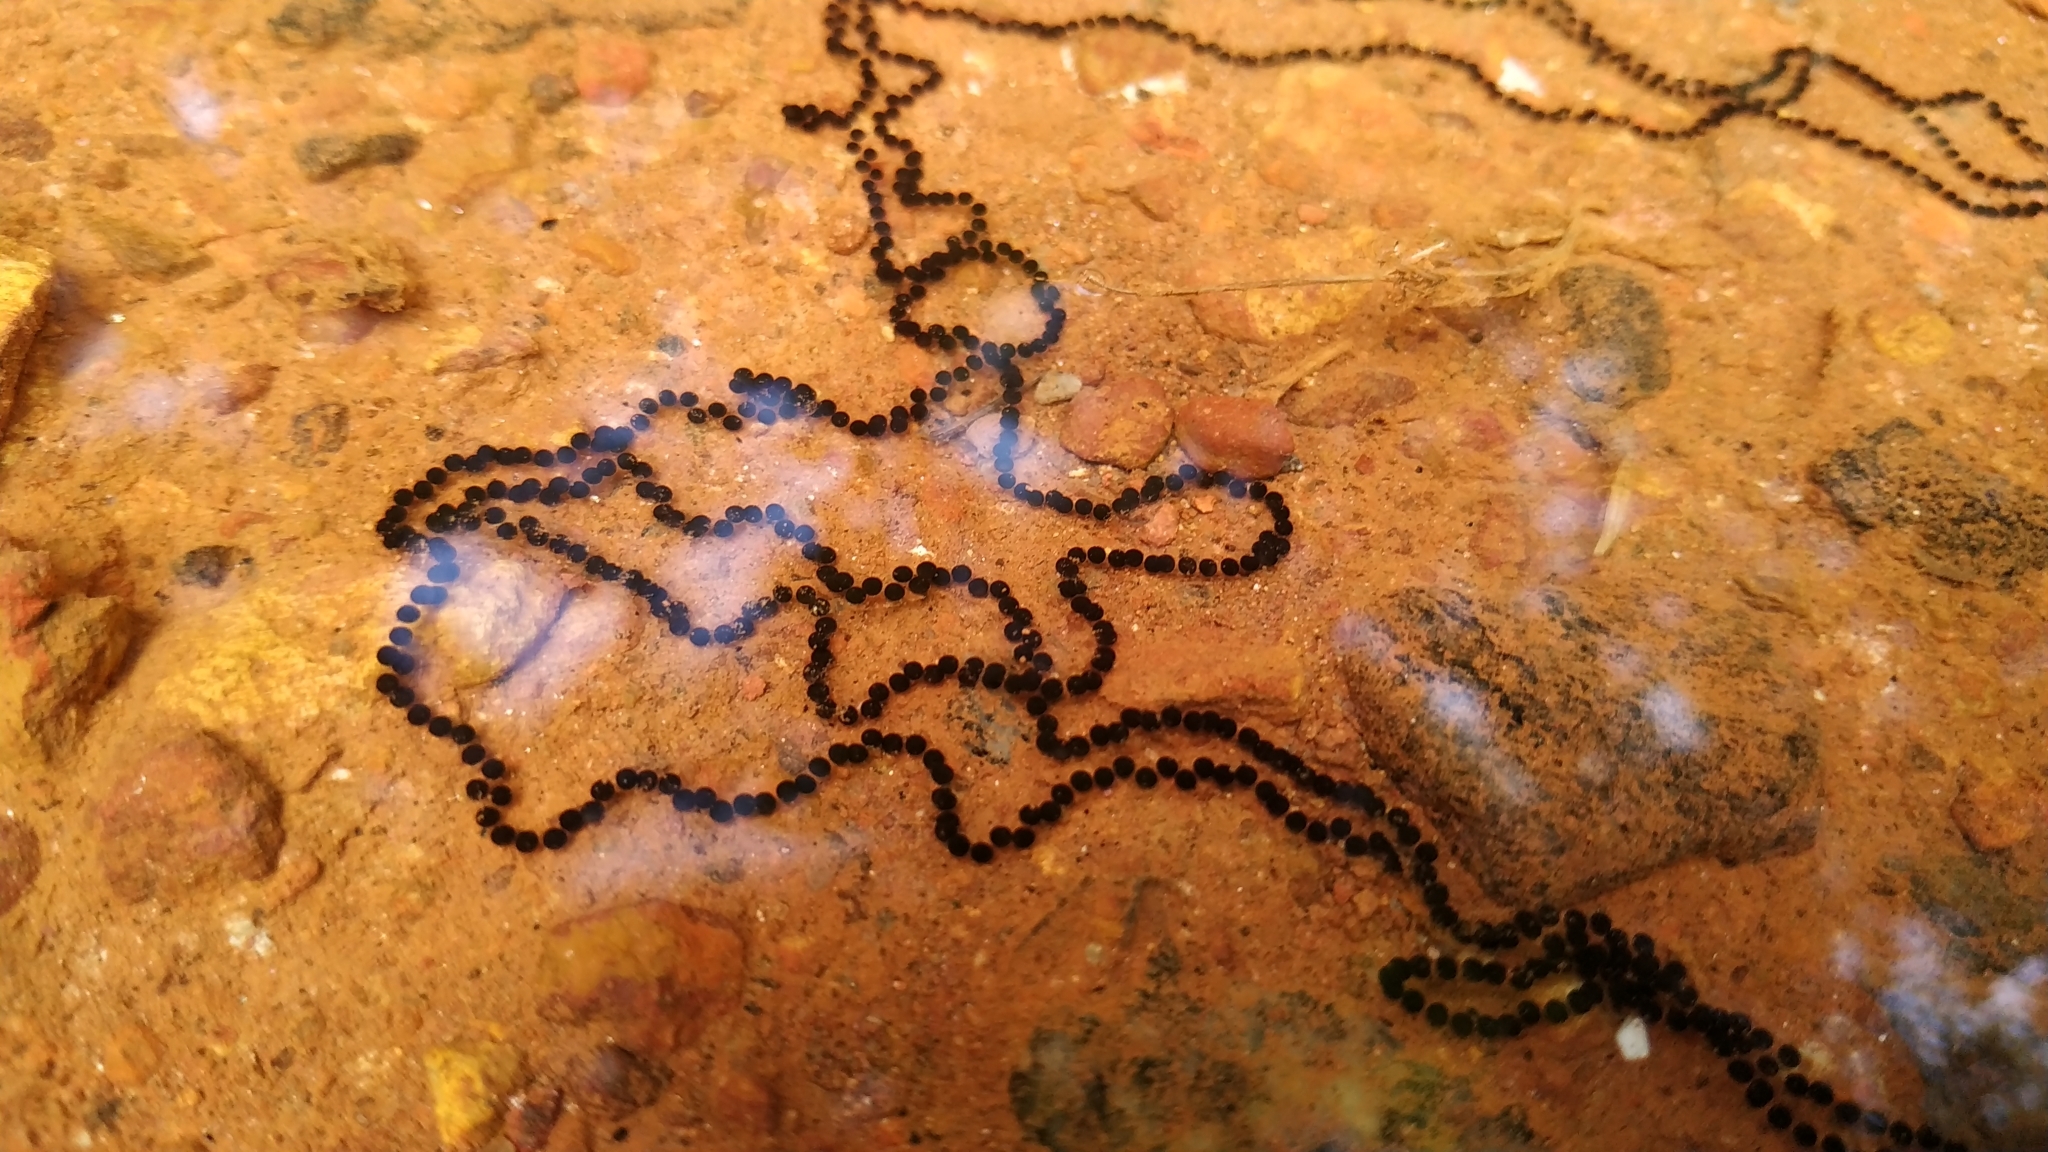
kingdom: Animalia
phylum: Chordata
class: Amphibia
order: Anura
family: Bufonidae
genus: Duttaphrynus
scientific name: Duttaphrynus melanostictus
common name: Common sunda toad
